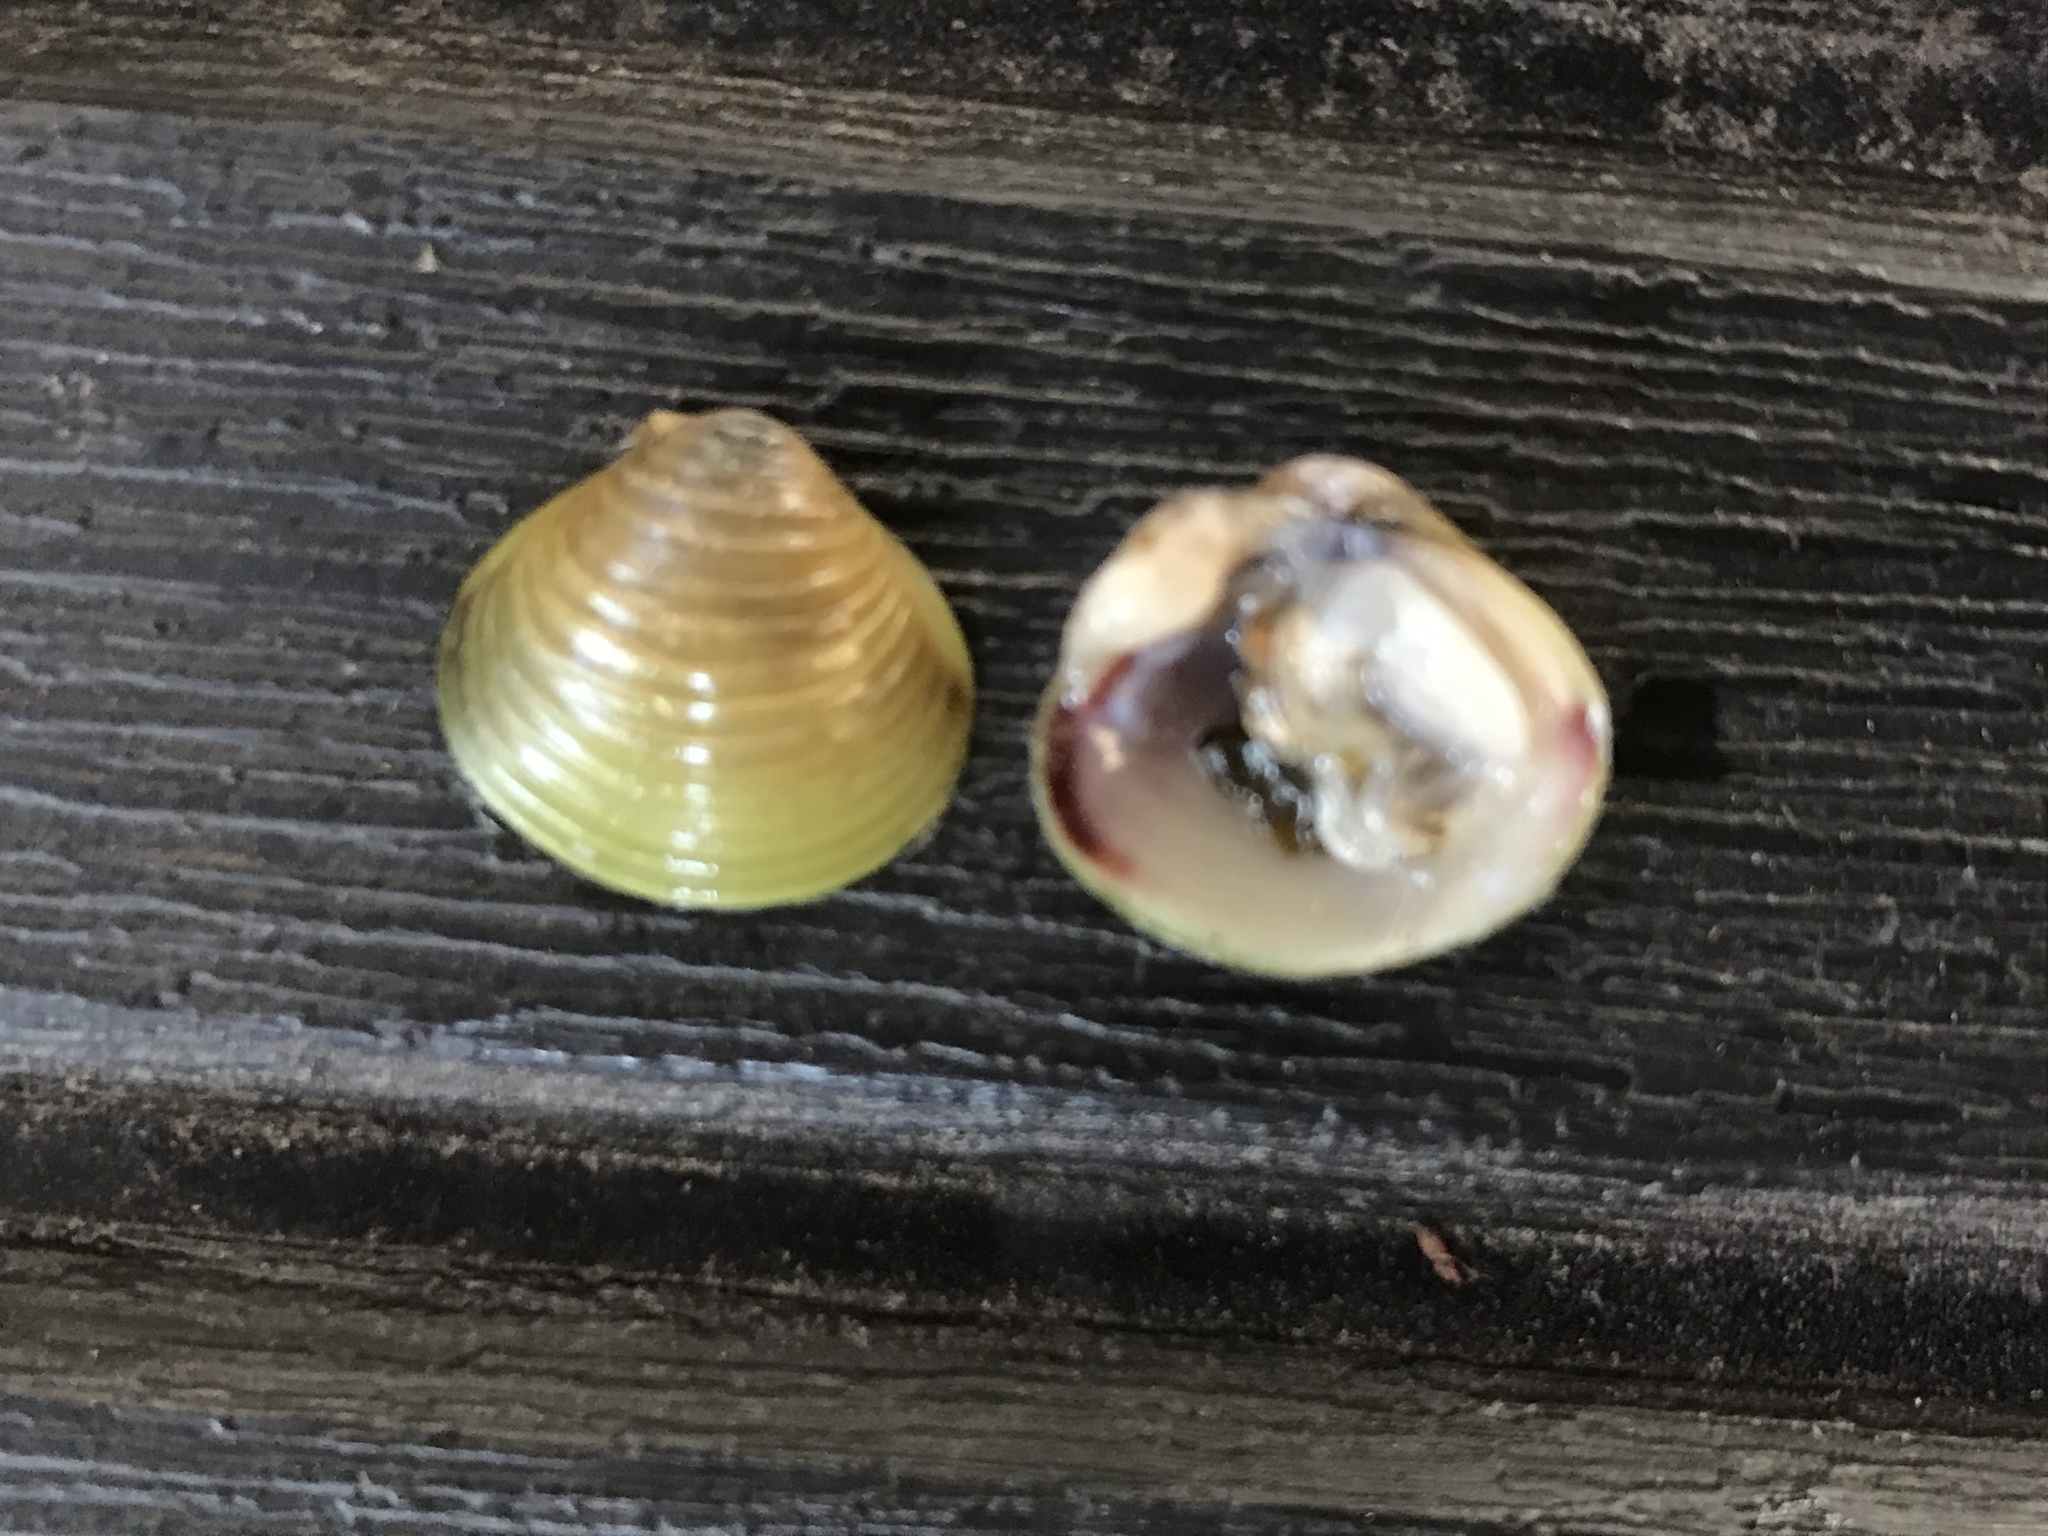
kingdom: Animalia
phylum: Mollusca
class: Bivalvia
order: Venerida
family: Cyrenidae
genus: Corbicula
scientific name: Corbicula fluminea
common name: Asian clam
